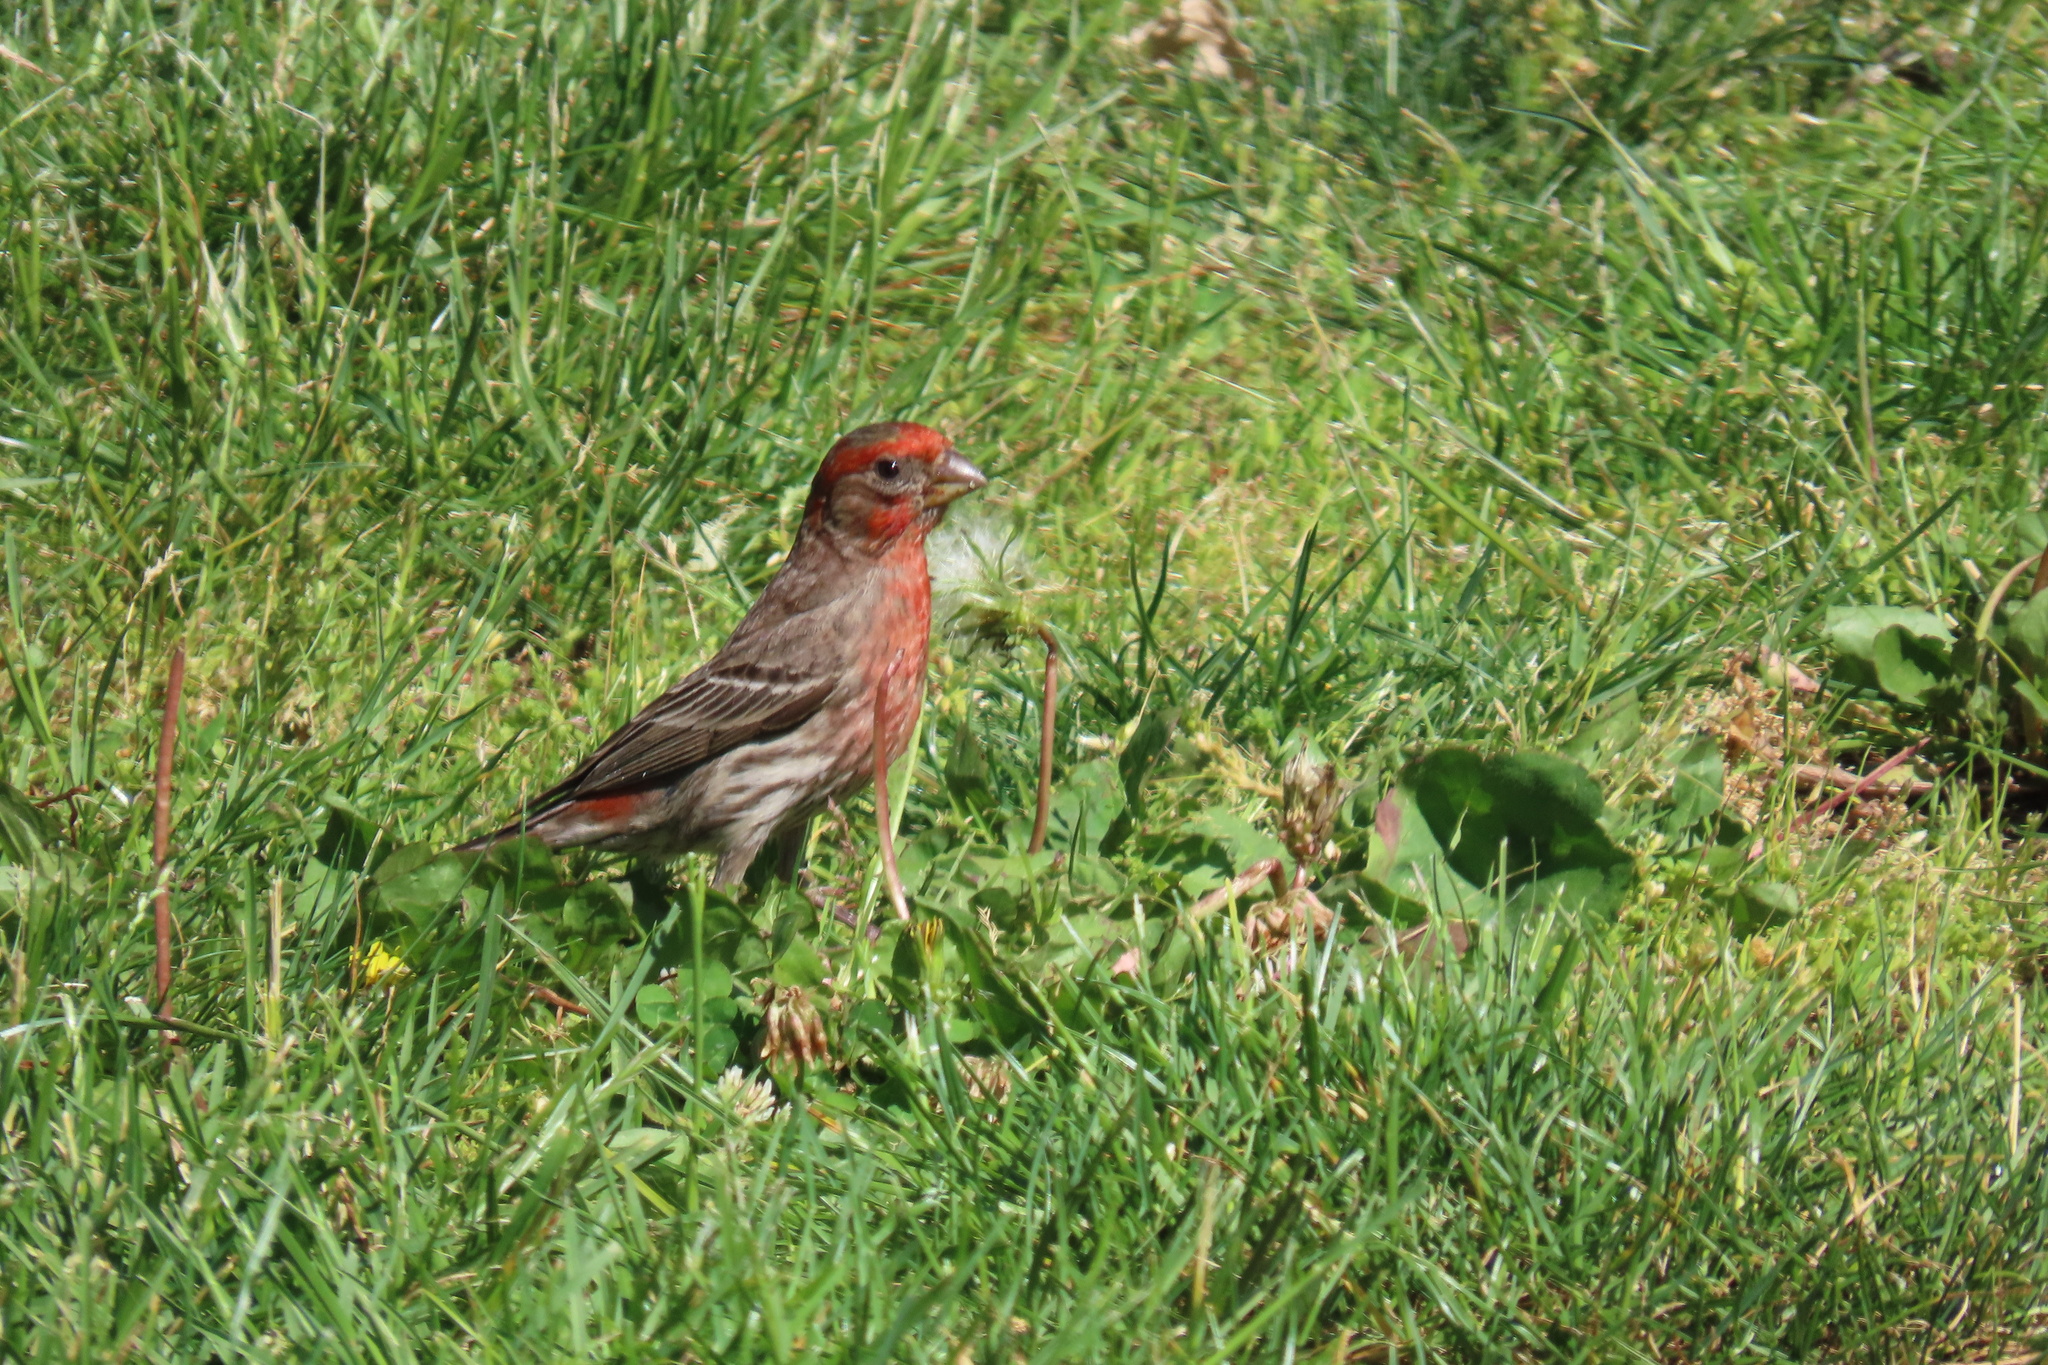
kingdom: Animalia
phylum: Chordata
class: Aves
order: Passeriformes
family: Fringillidae
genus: Haemorhous
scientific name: Haemorhous mexicanus
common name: House finch
